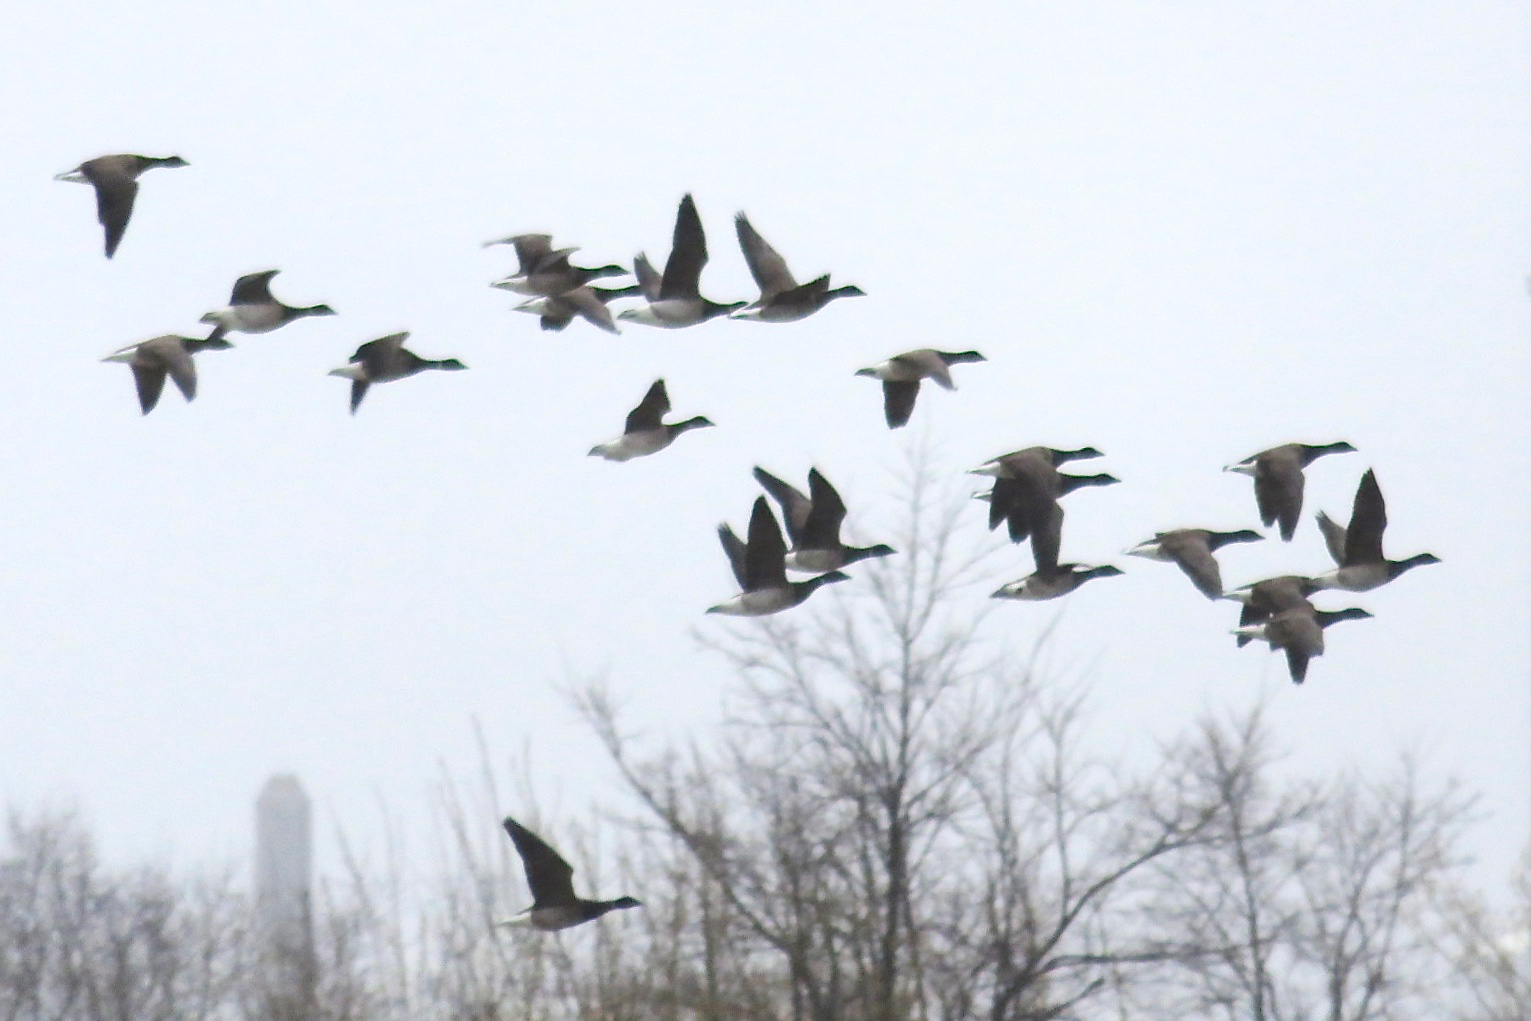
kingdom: Animalia
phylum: Chordata
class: Aves
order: Anseriformes
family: Anatidae
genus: Branta
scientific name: Branta bernicla
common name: Brant goose
